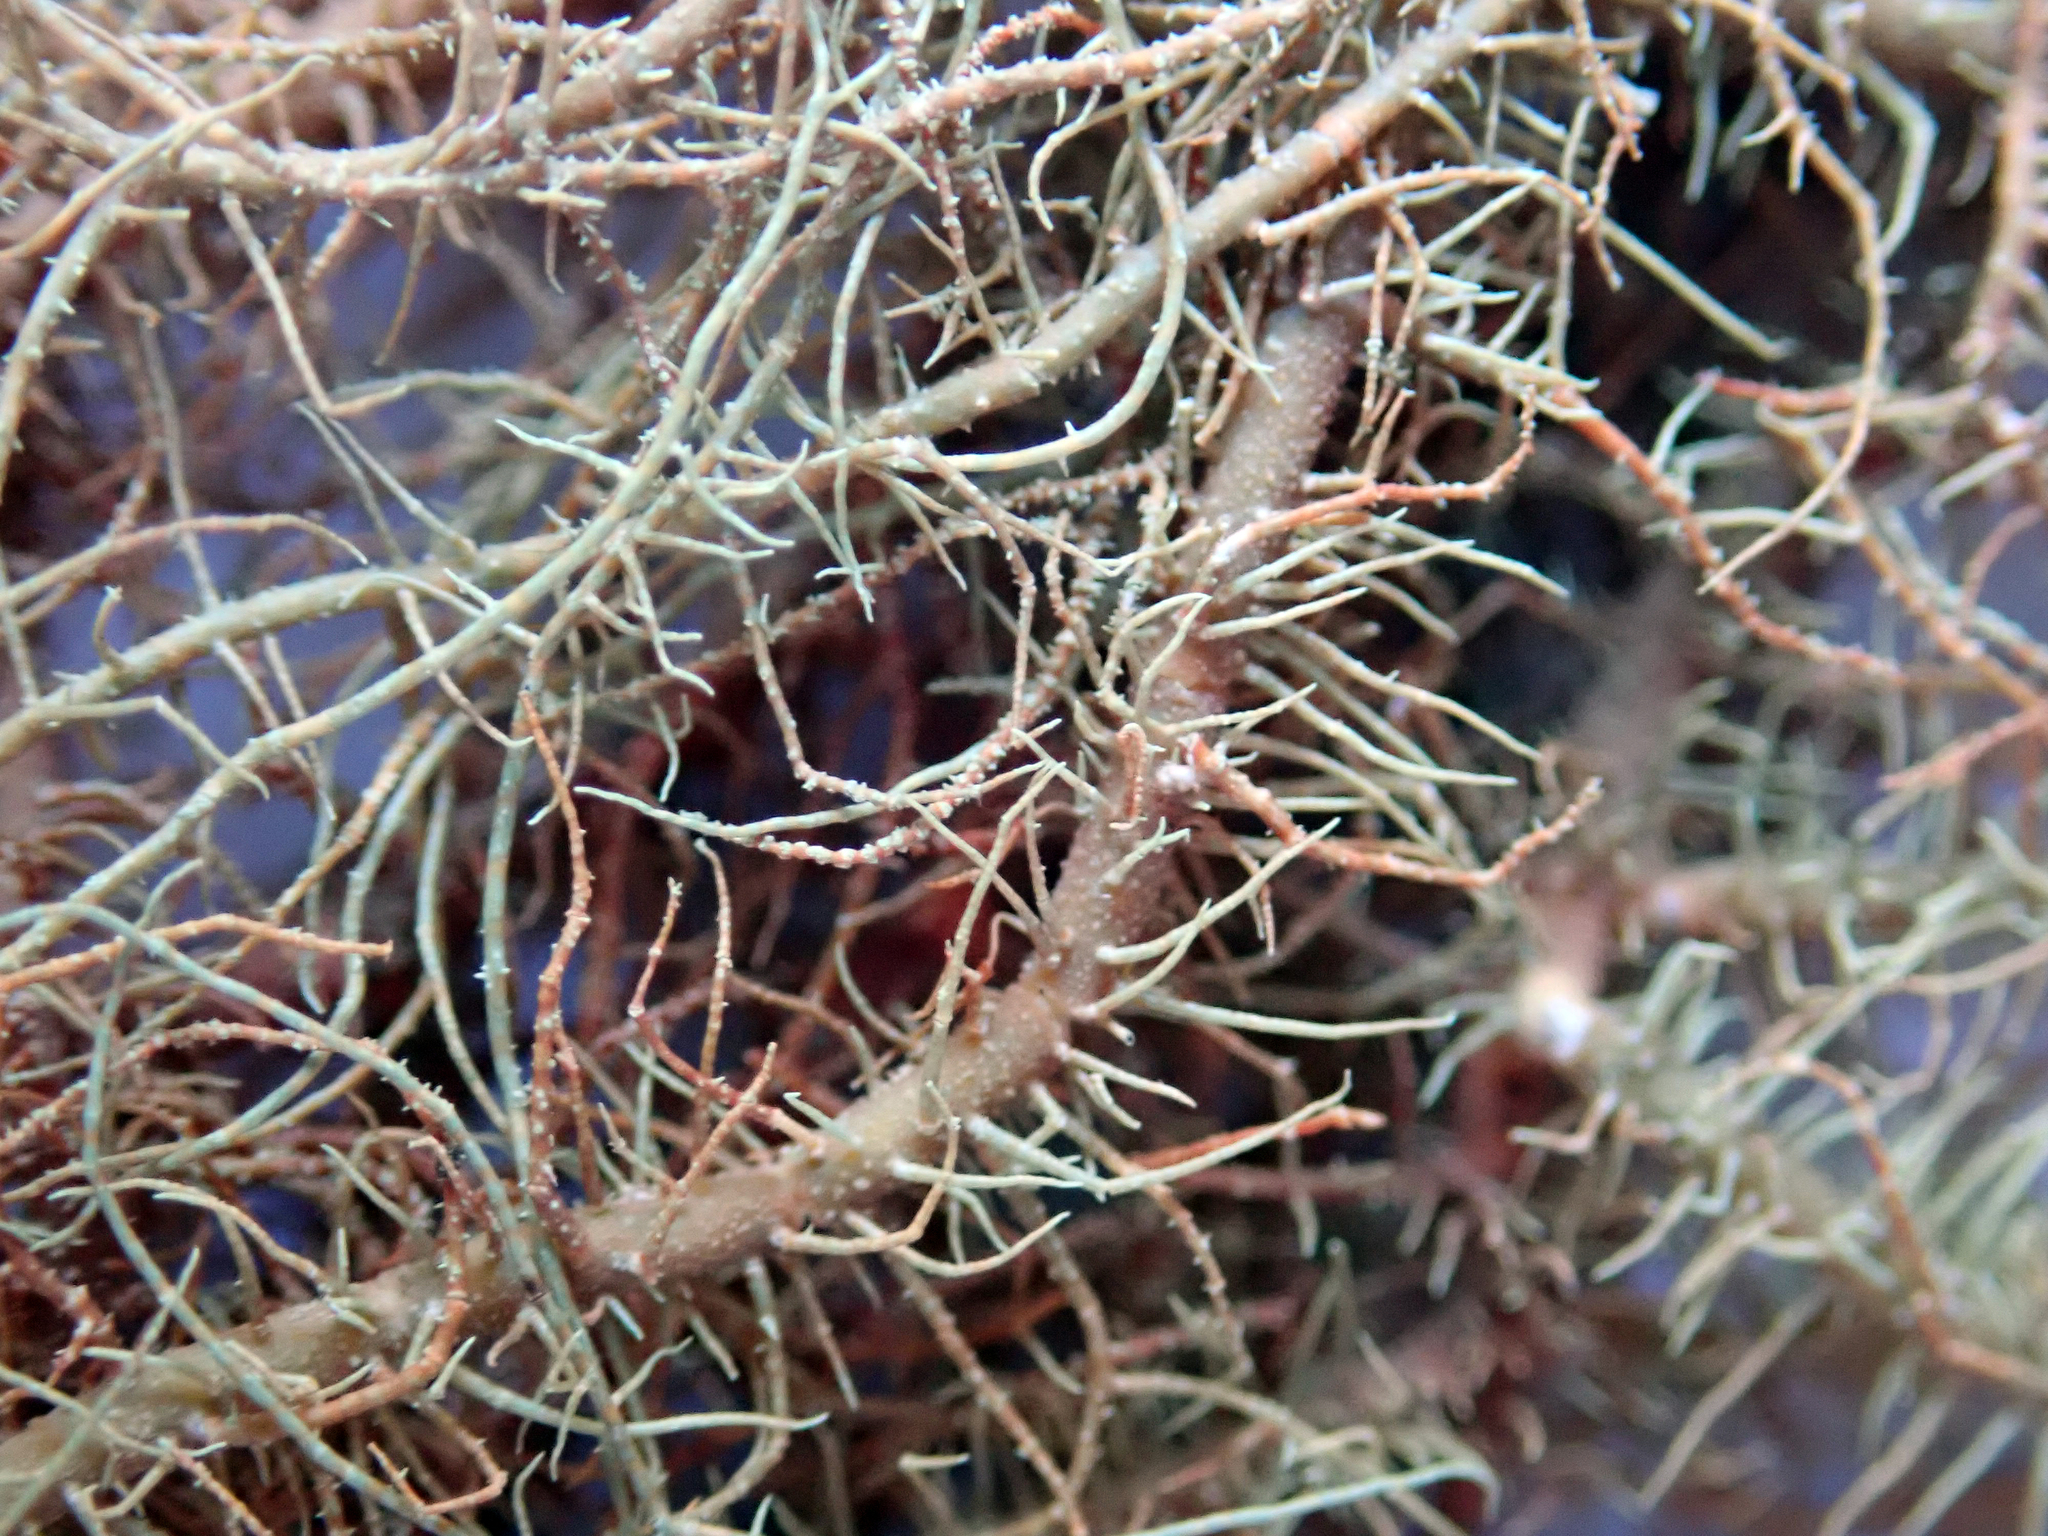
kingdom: Fungi
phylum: Ascomycota
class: Lecanoromycetes
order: Lecanorales
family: Parmeliaceae
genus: Usnea
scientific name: Usnea rubicunda
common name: Red beard lichen
